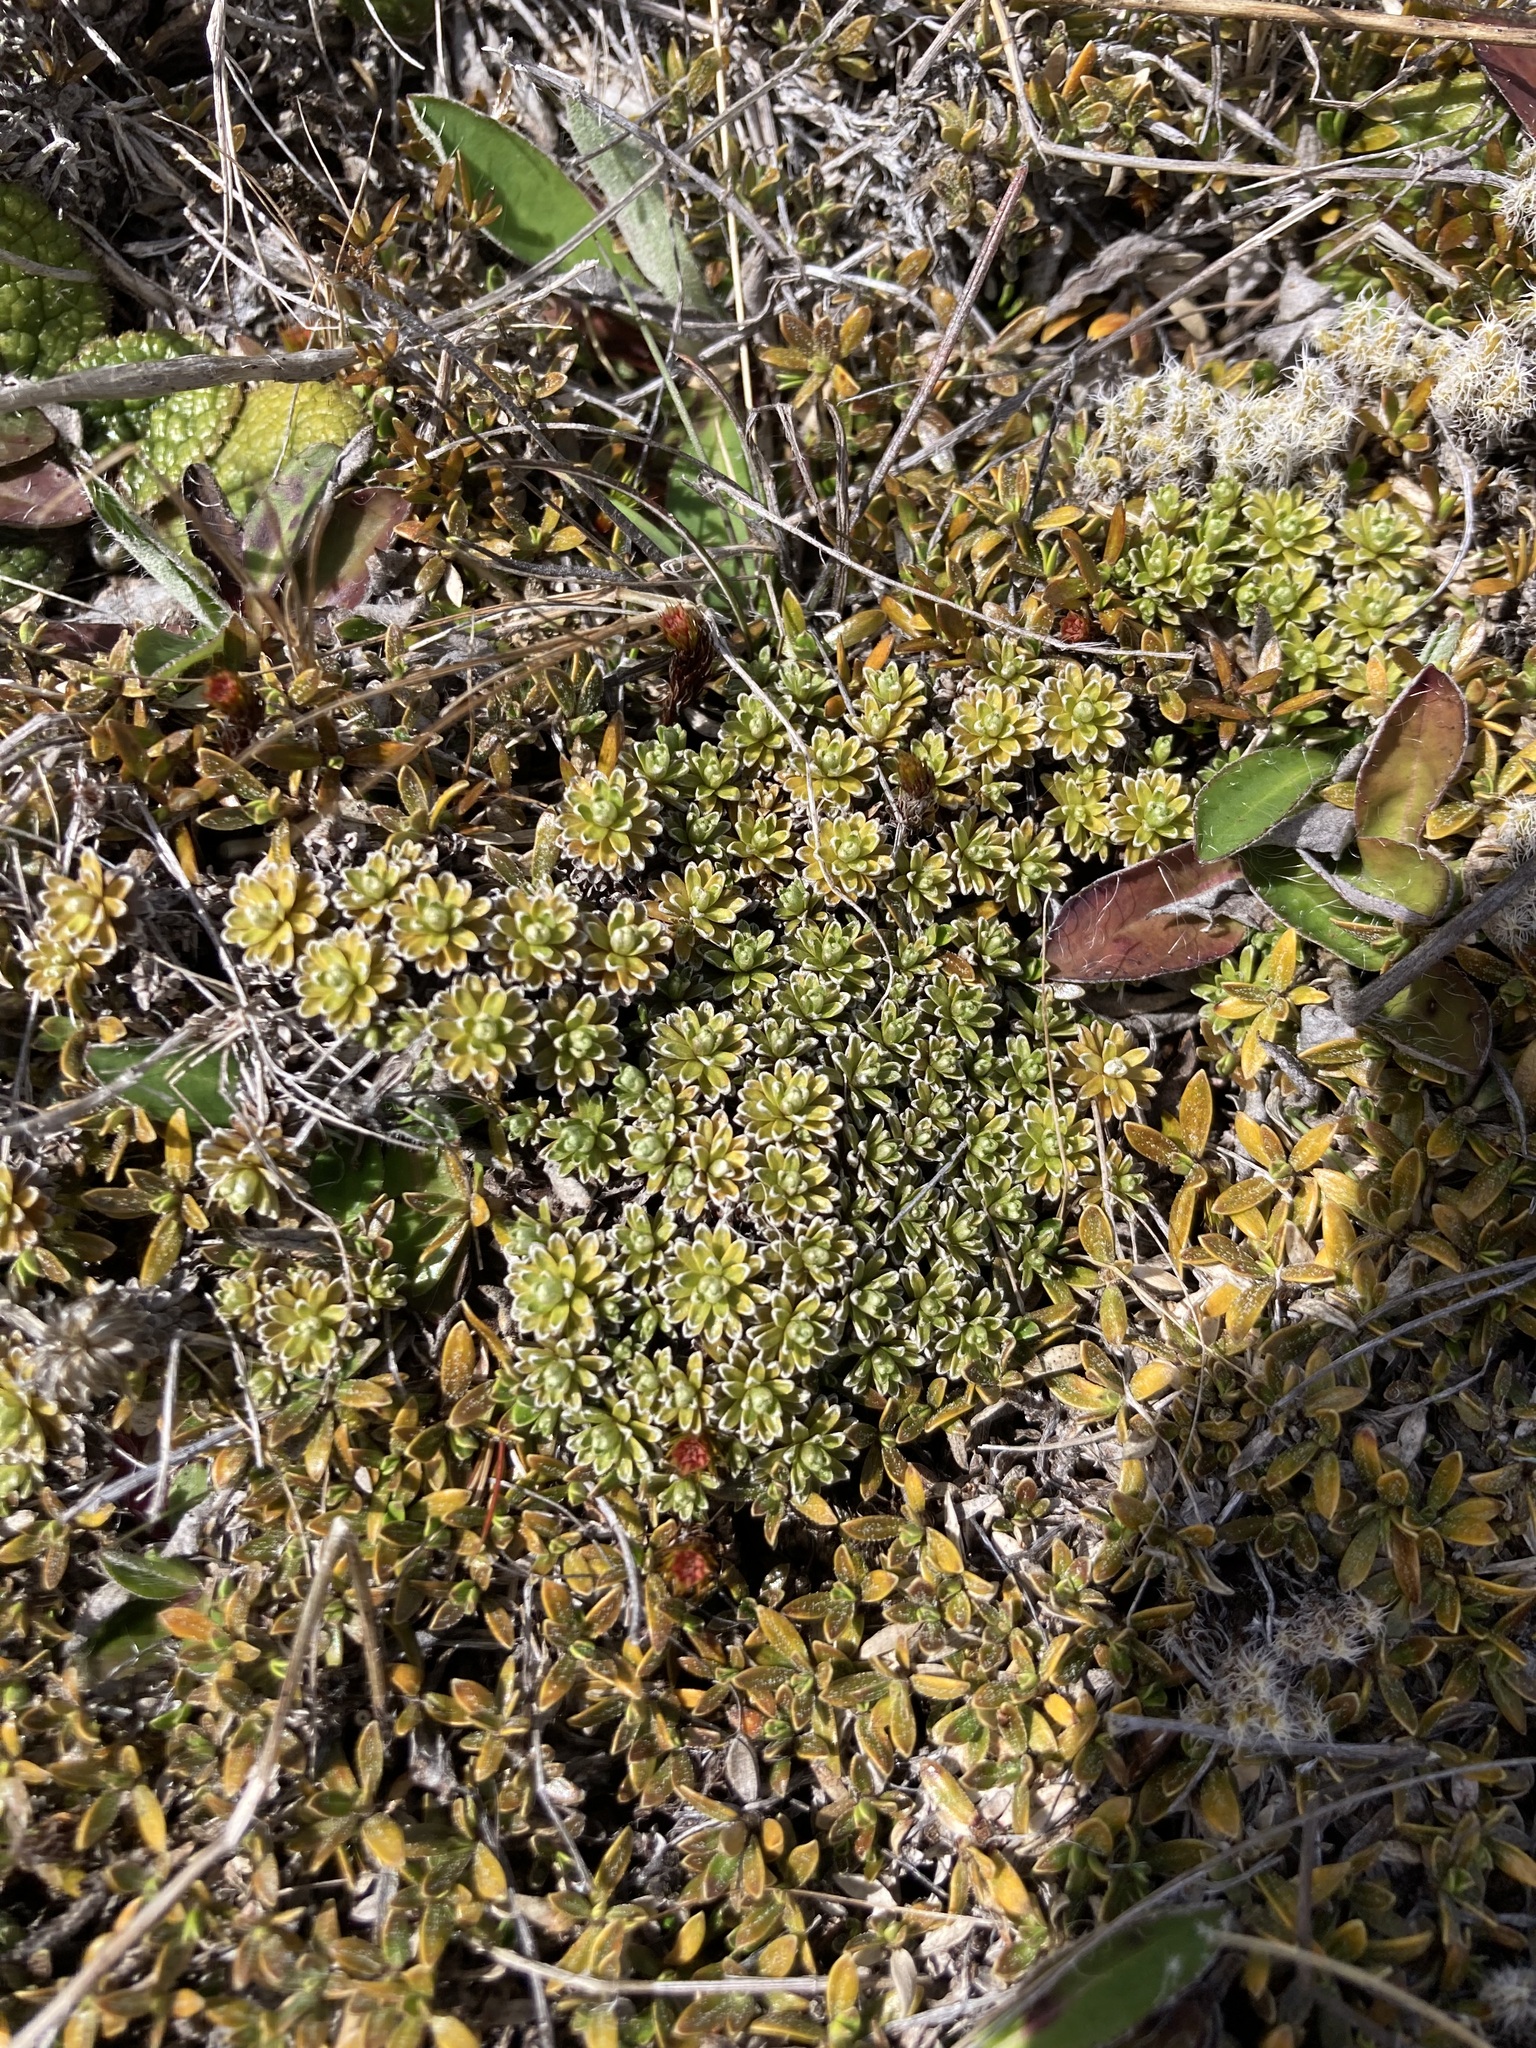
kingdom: Plantae
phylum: Tracheophyta
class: Magnoliopsida
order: Asterales
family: Asteraceae
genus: Raoulia
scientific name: Raoulia subsericea
